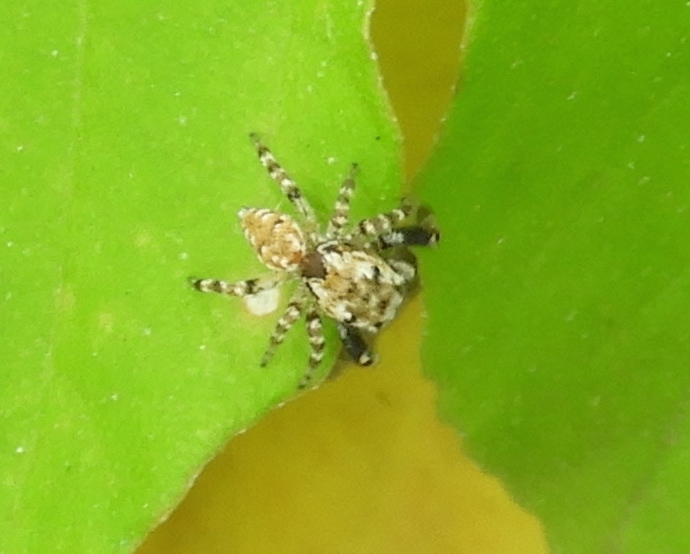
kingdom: Animalia
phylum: Arthropoda
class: Arachnida
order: Araneae
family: Salticidae
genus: Metaphidippus
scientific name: Metaphidippus
